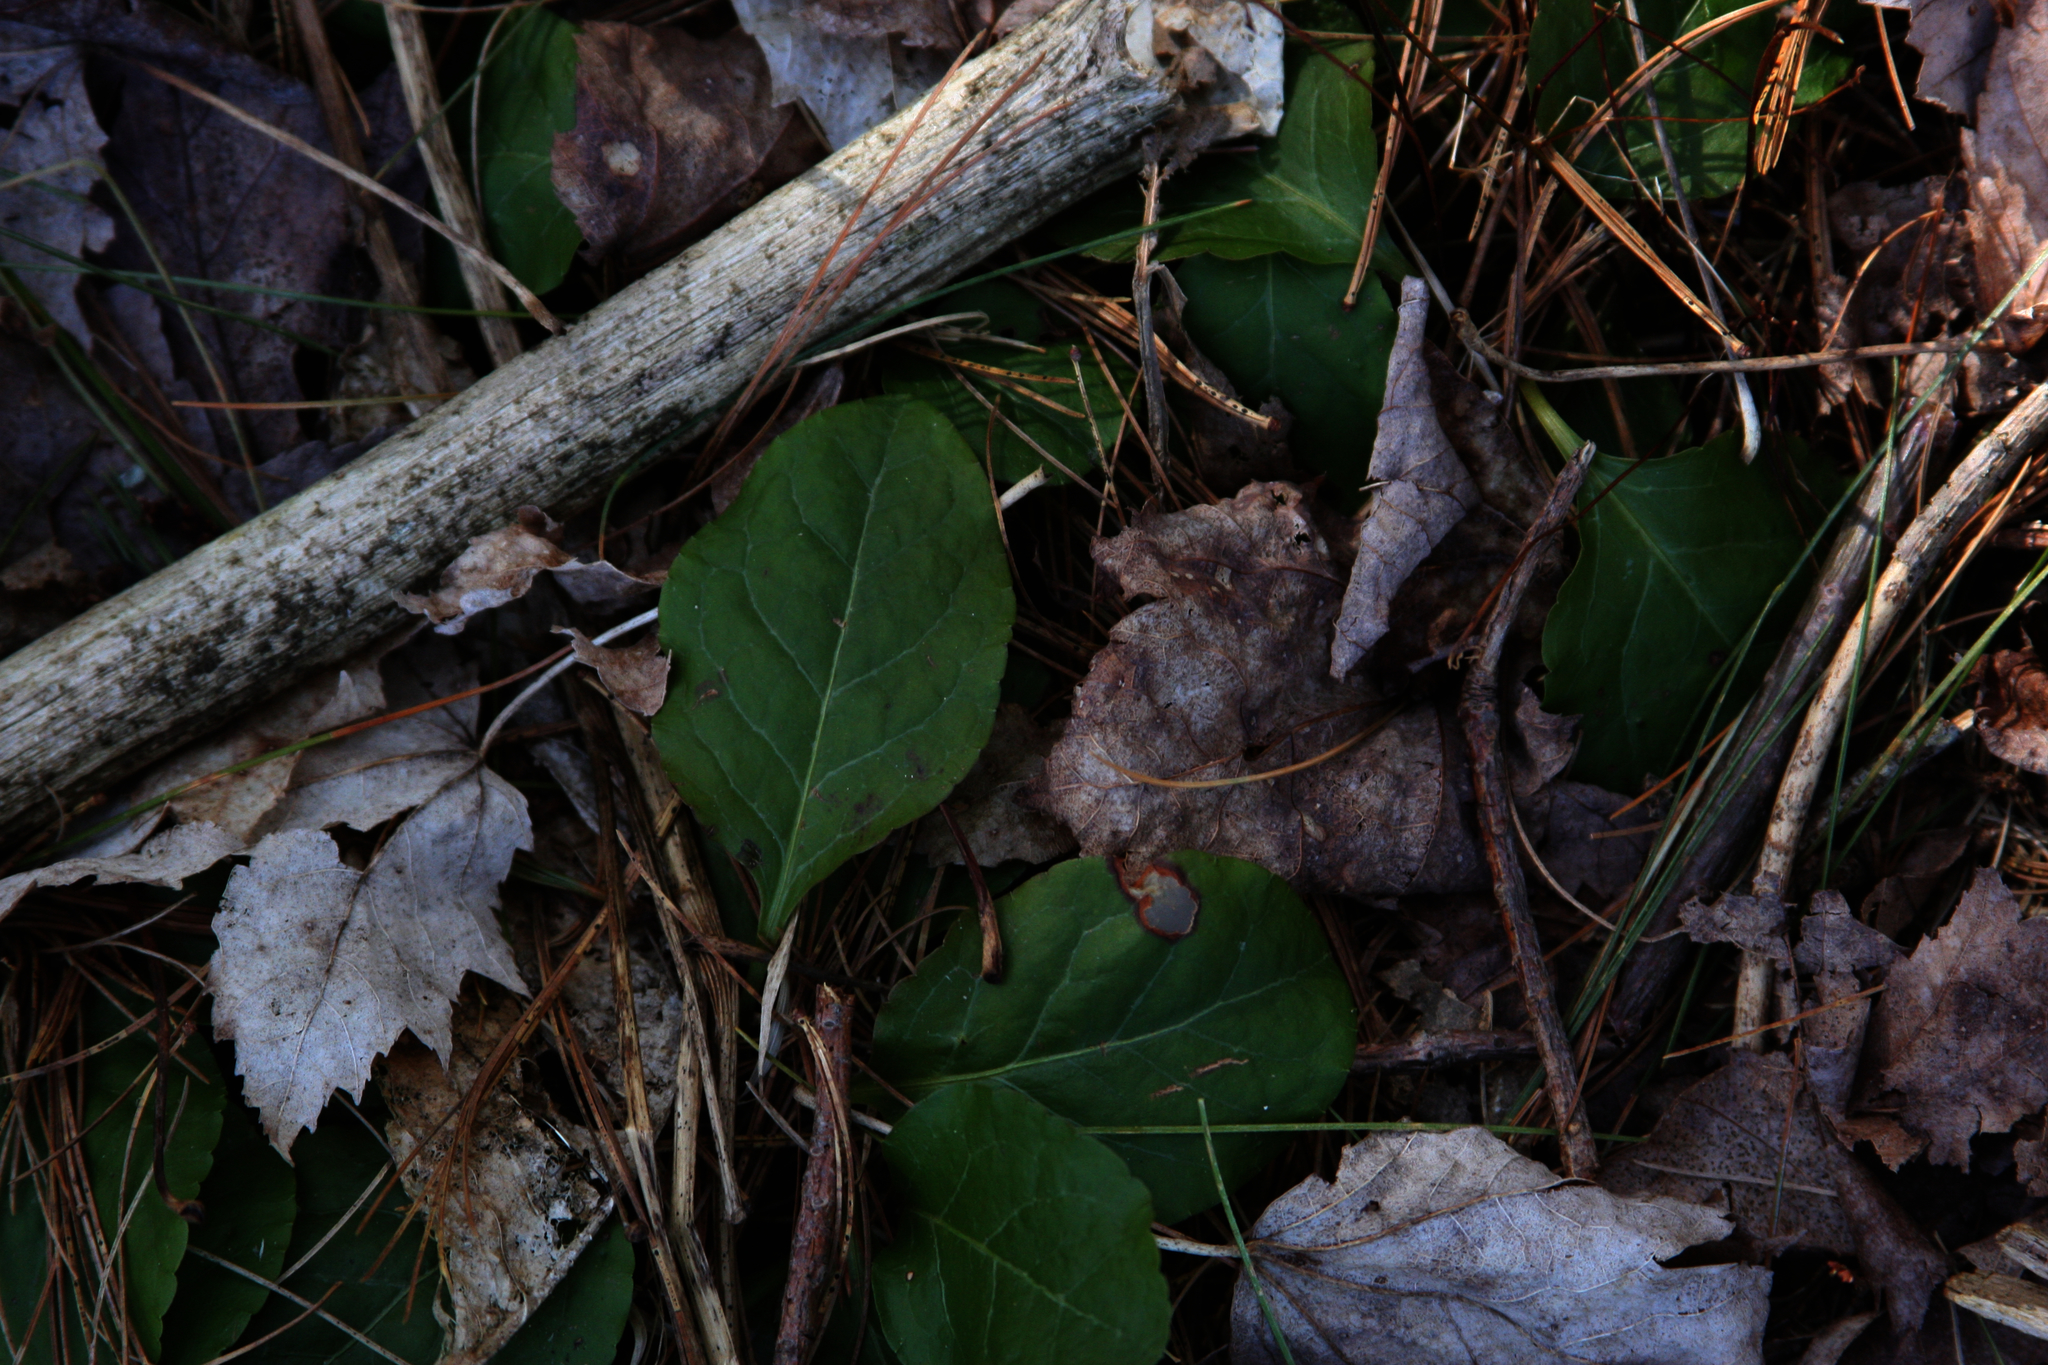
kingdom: Plantae
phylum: Tracheophyta
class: Magnoliopsida
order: Ericales
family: Ericaceae
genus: Pyrola
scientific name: Pyrola elliptica
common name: Shinleaf
